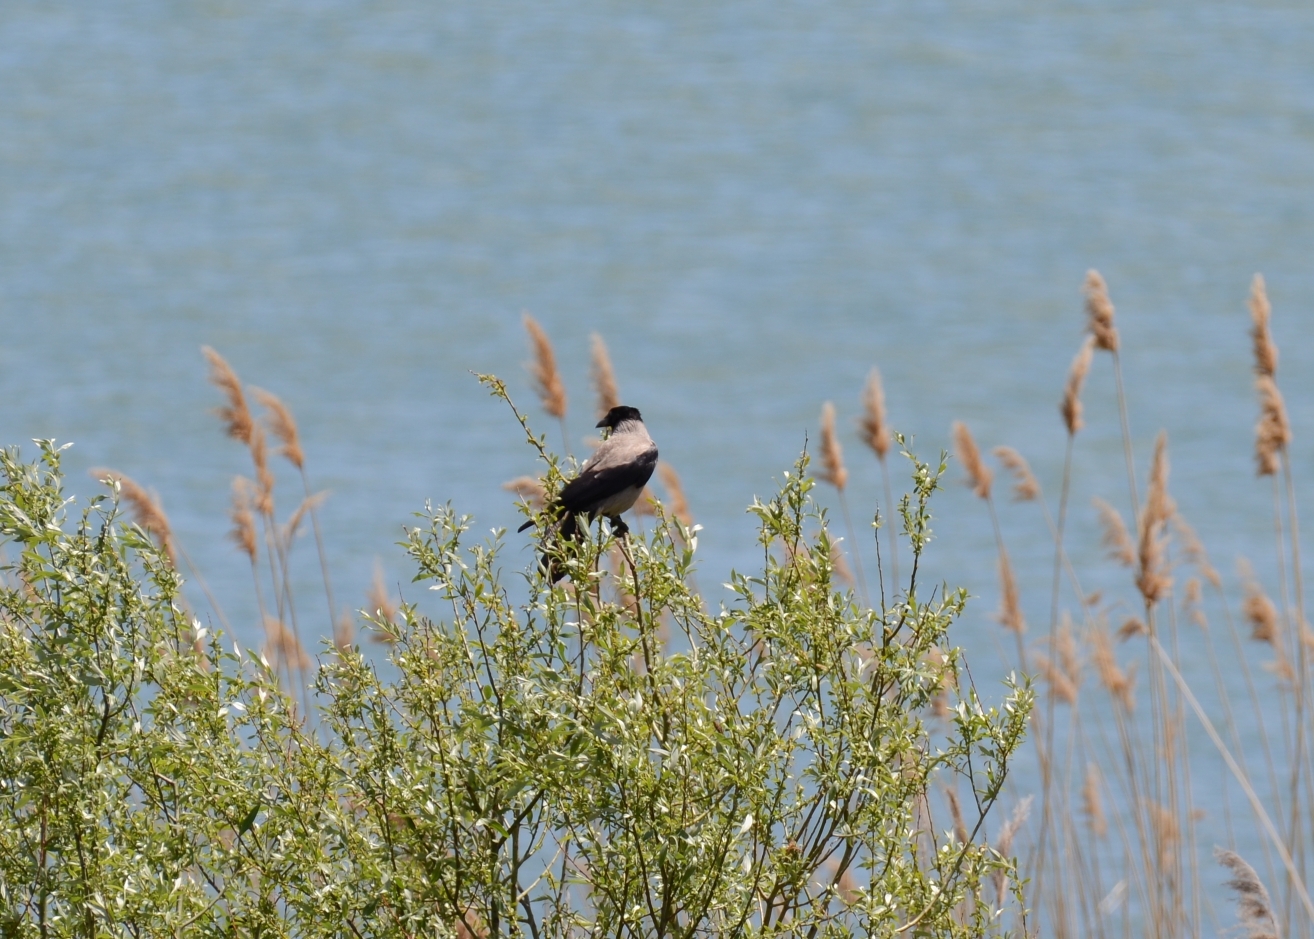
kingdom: Animalia
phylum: Chordata
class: Aves
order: Passeriformes
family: Corvidae
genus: Corvus
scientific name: Corvus cornix
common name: Hooded crow
